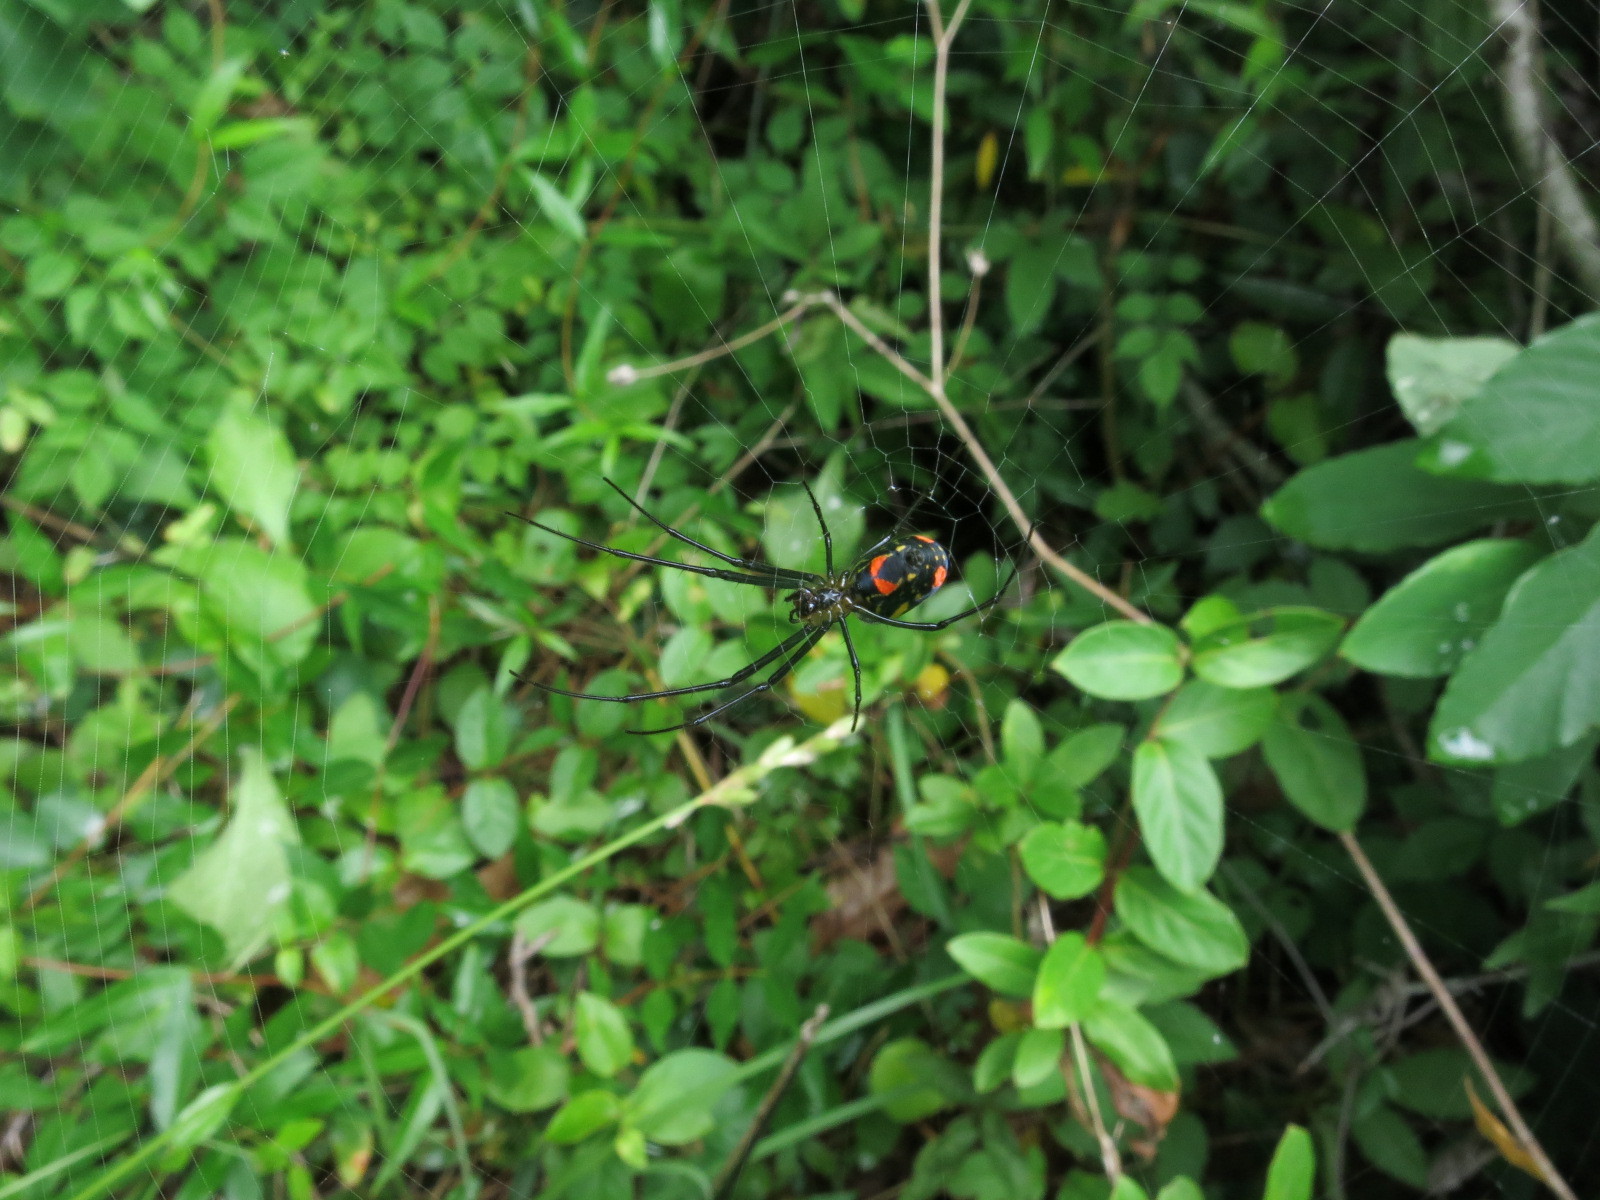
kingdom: Animalia
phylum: Arthropoda
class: Arachnida
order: Araneae
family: Tetragnathidae
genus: Leucauge
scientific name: Leucauge argyrobapta
